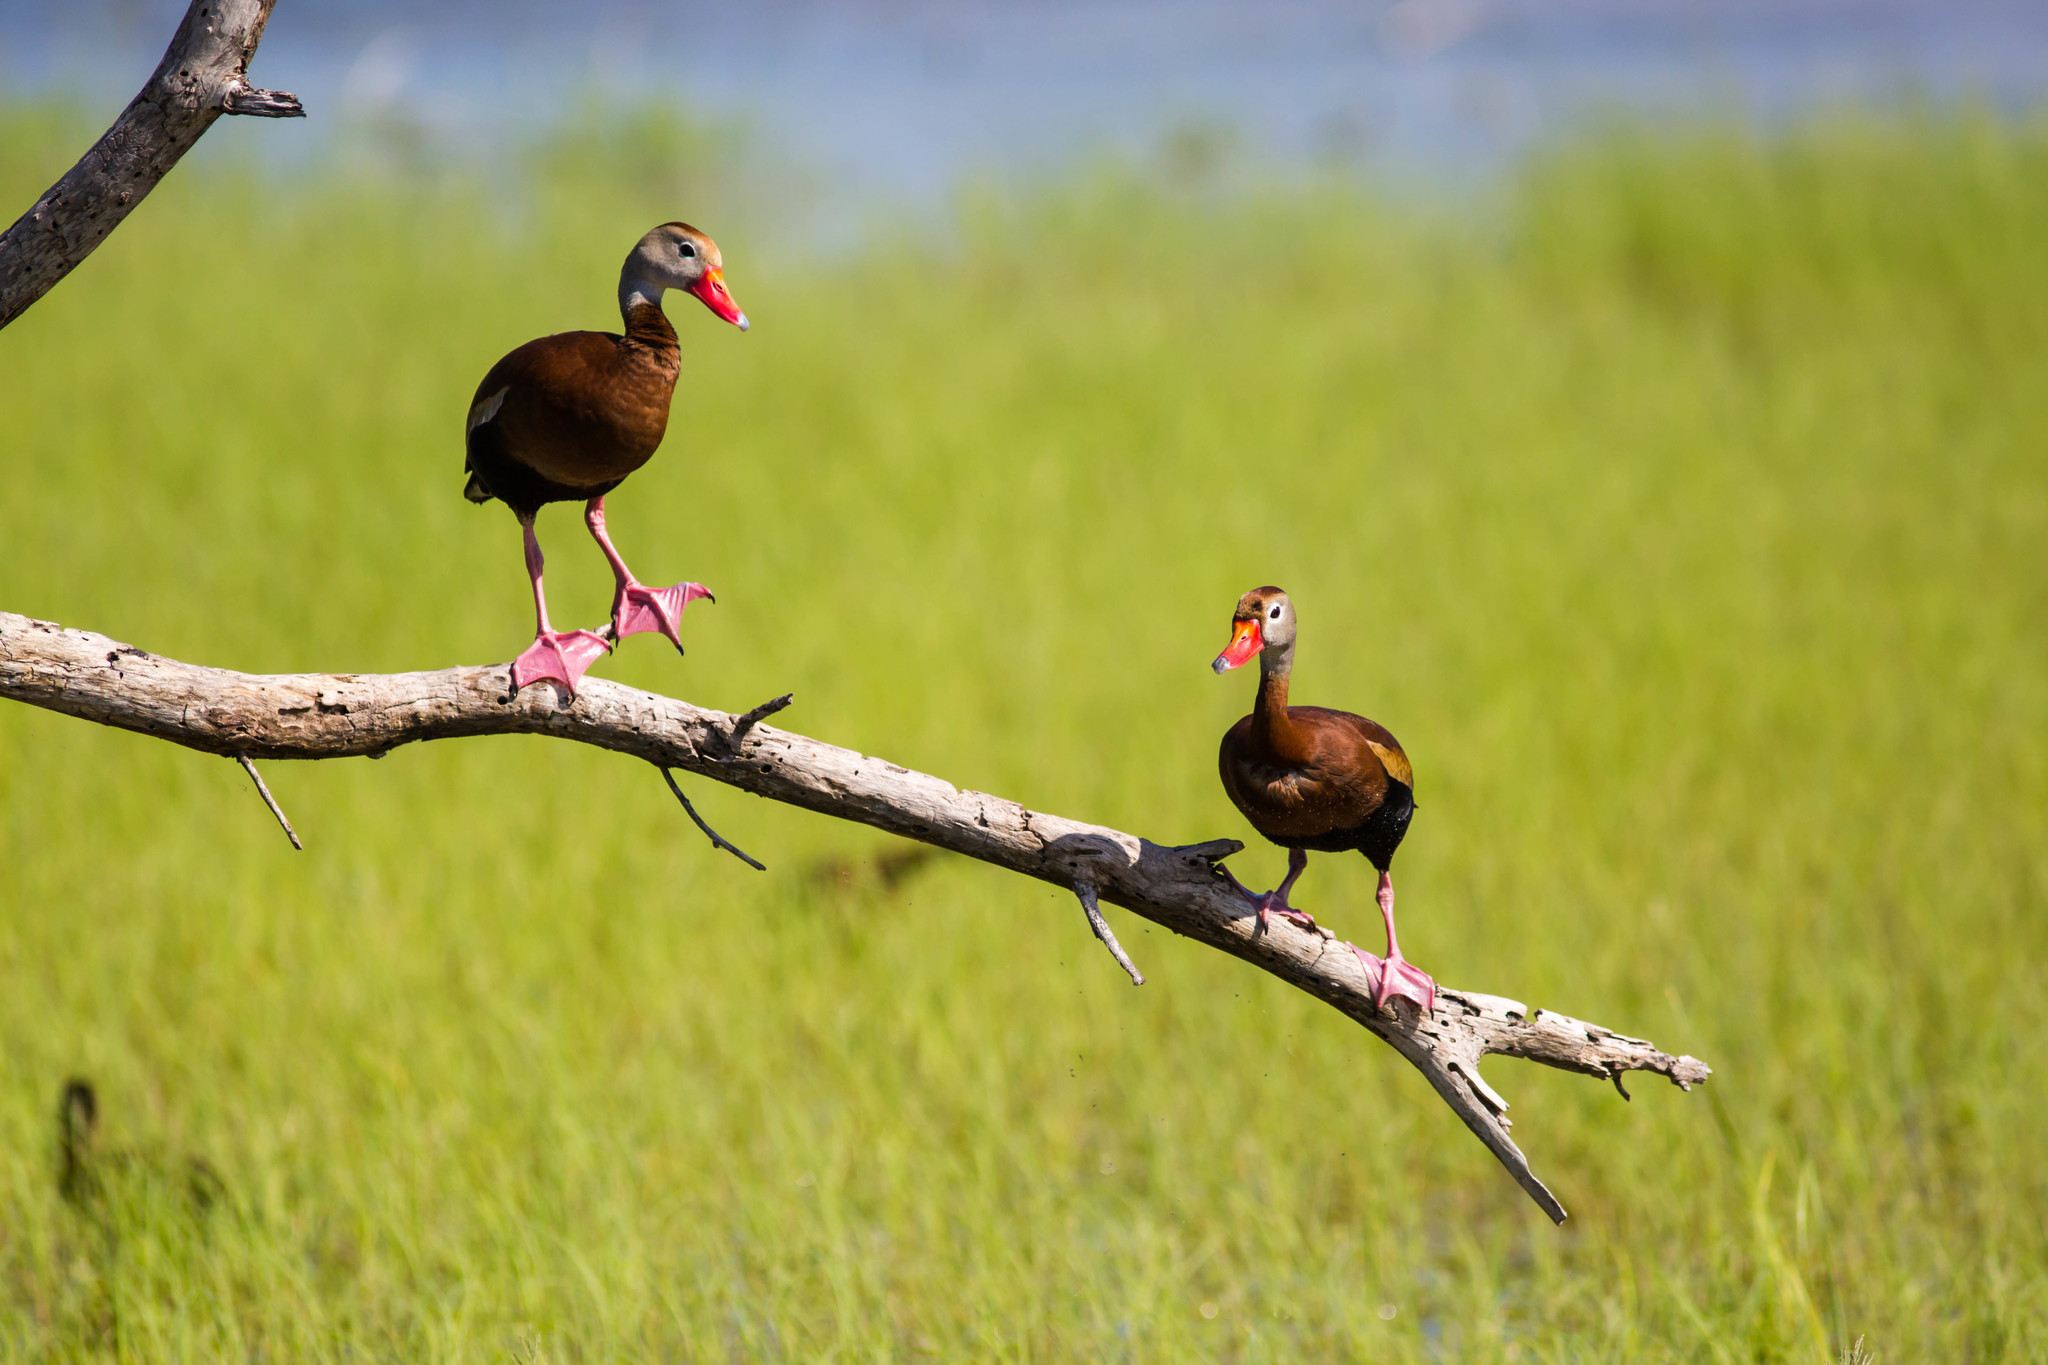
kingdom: Animalia
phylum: Chordata
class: Aves
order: Anseriformes
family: Anatidae
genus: Dendrocygna
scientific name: Dendrocygna autumnalis
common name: Black-bellied whistling duck
